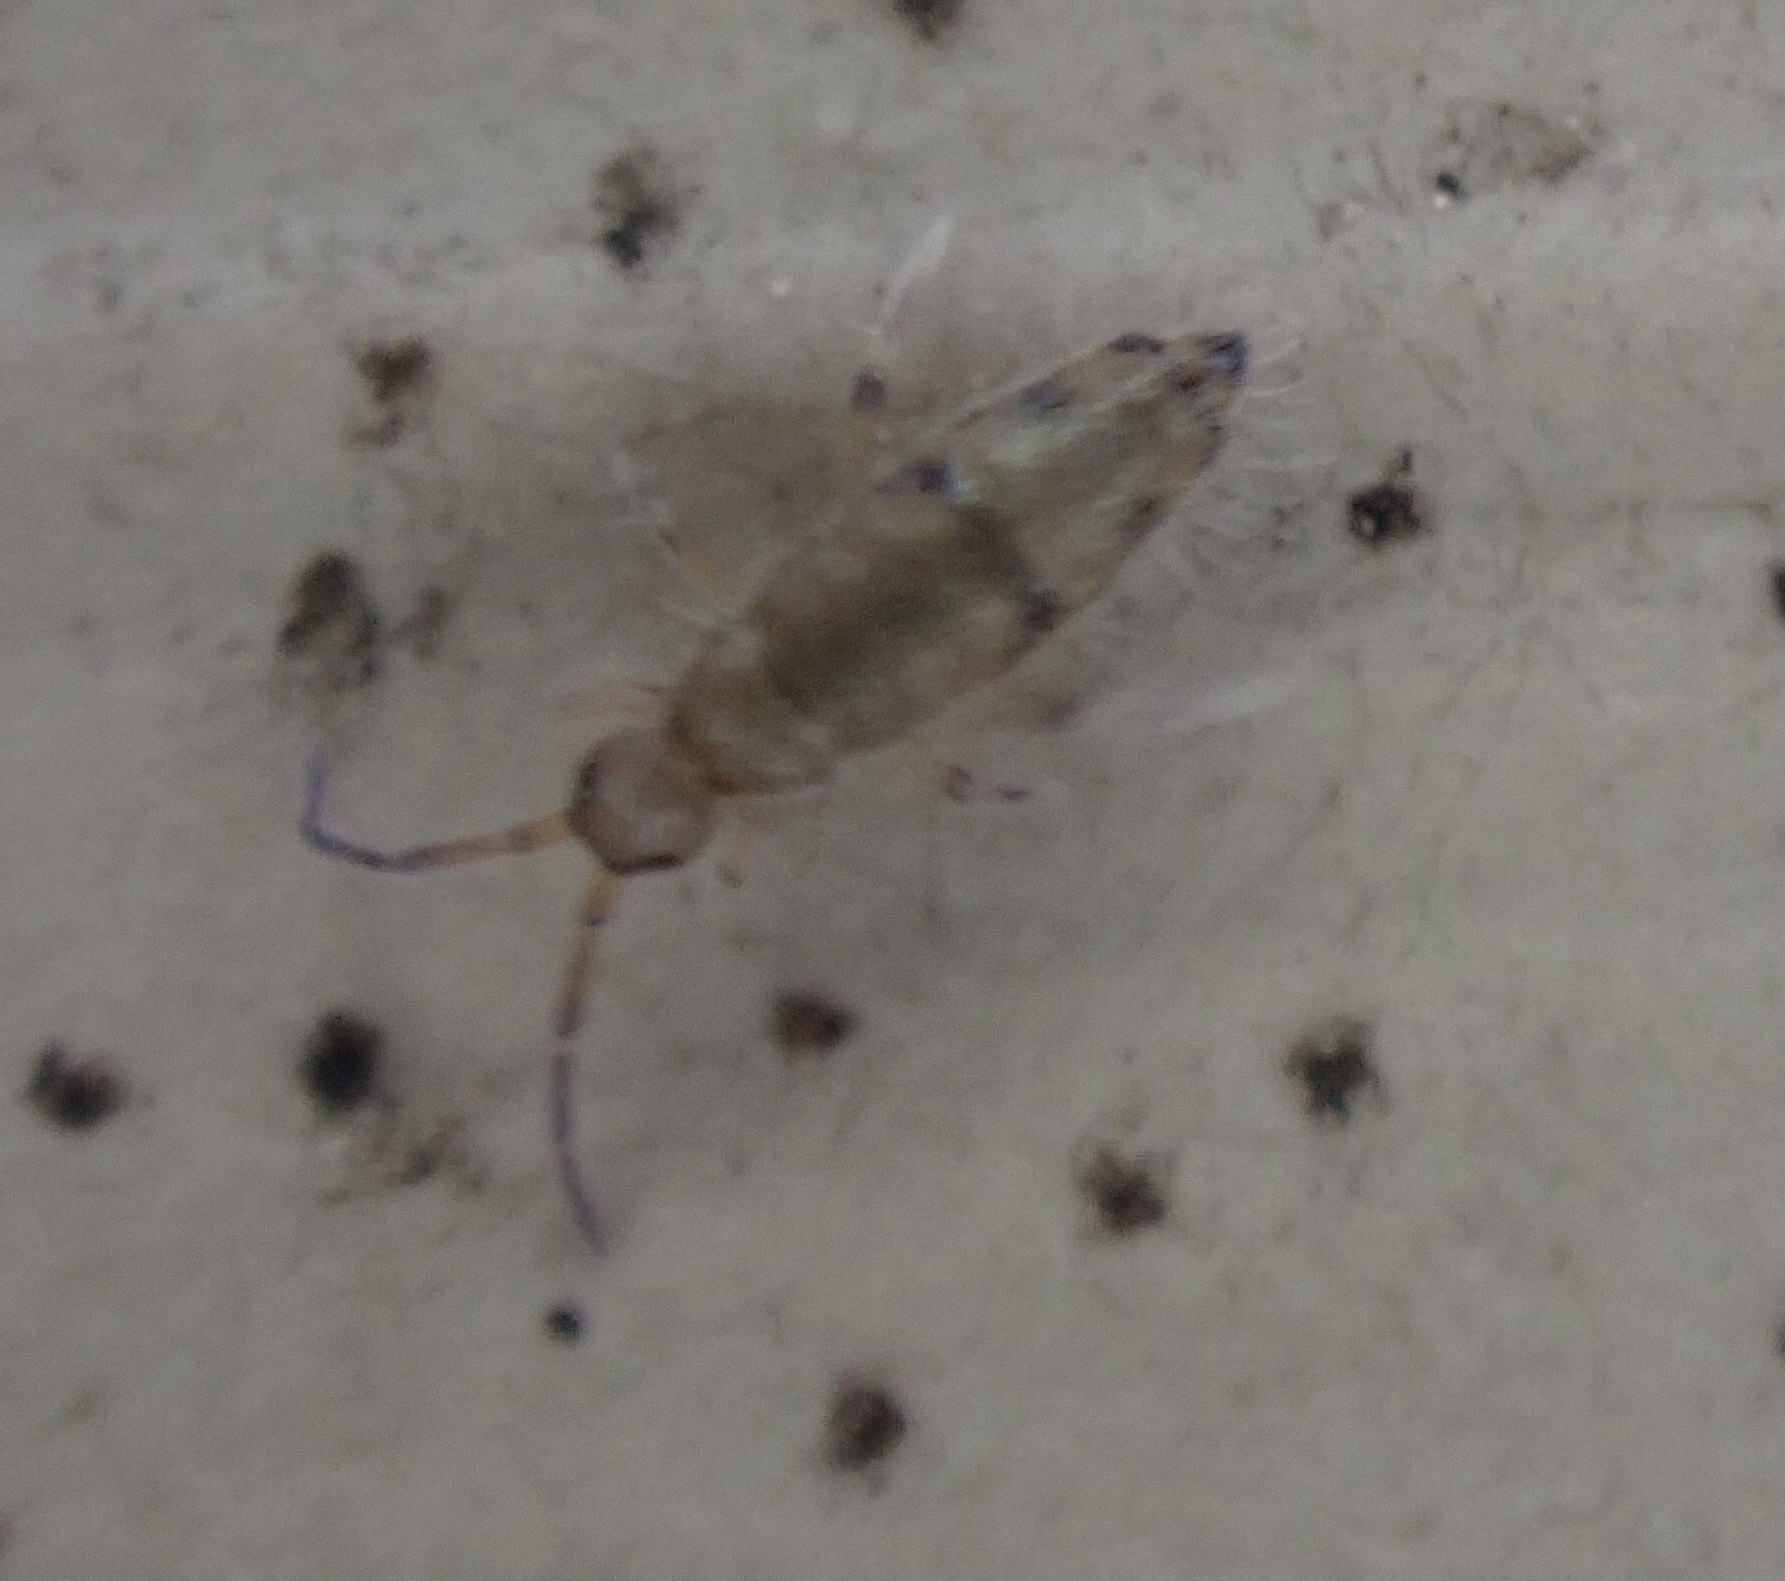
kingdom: Animalia
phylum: Arthropoda
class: Collembola
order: Entomobryomorpha
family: Entomobryidae
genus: Willowsia
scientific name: Willowsia nigromaculata
